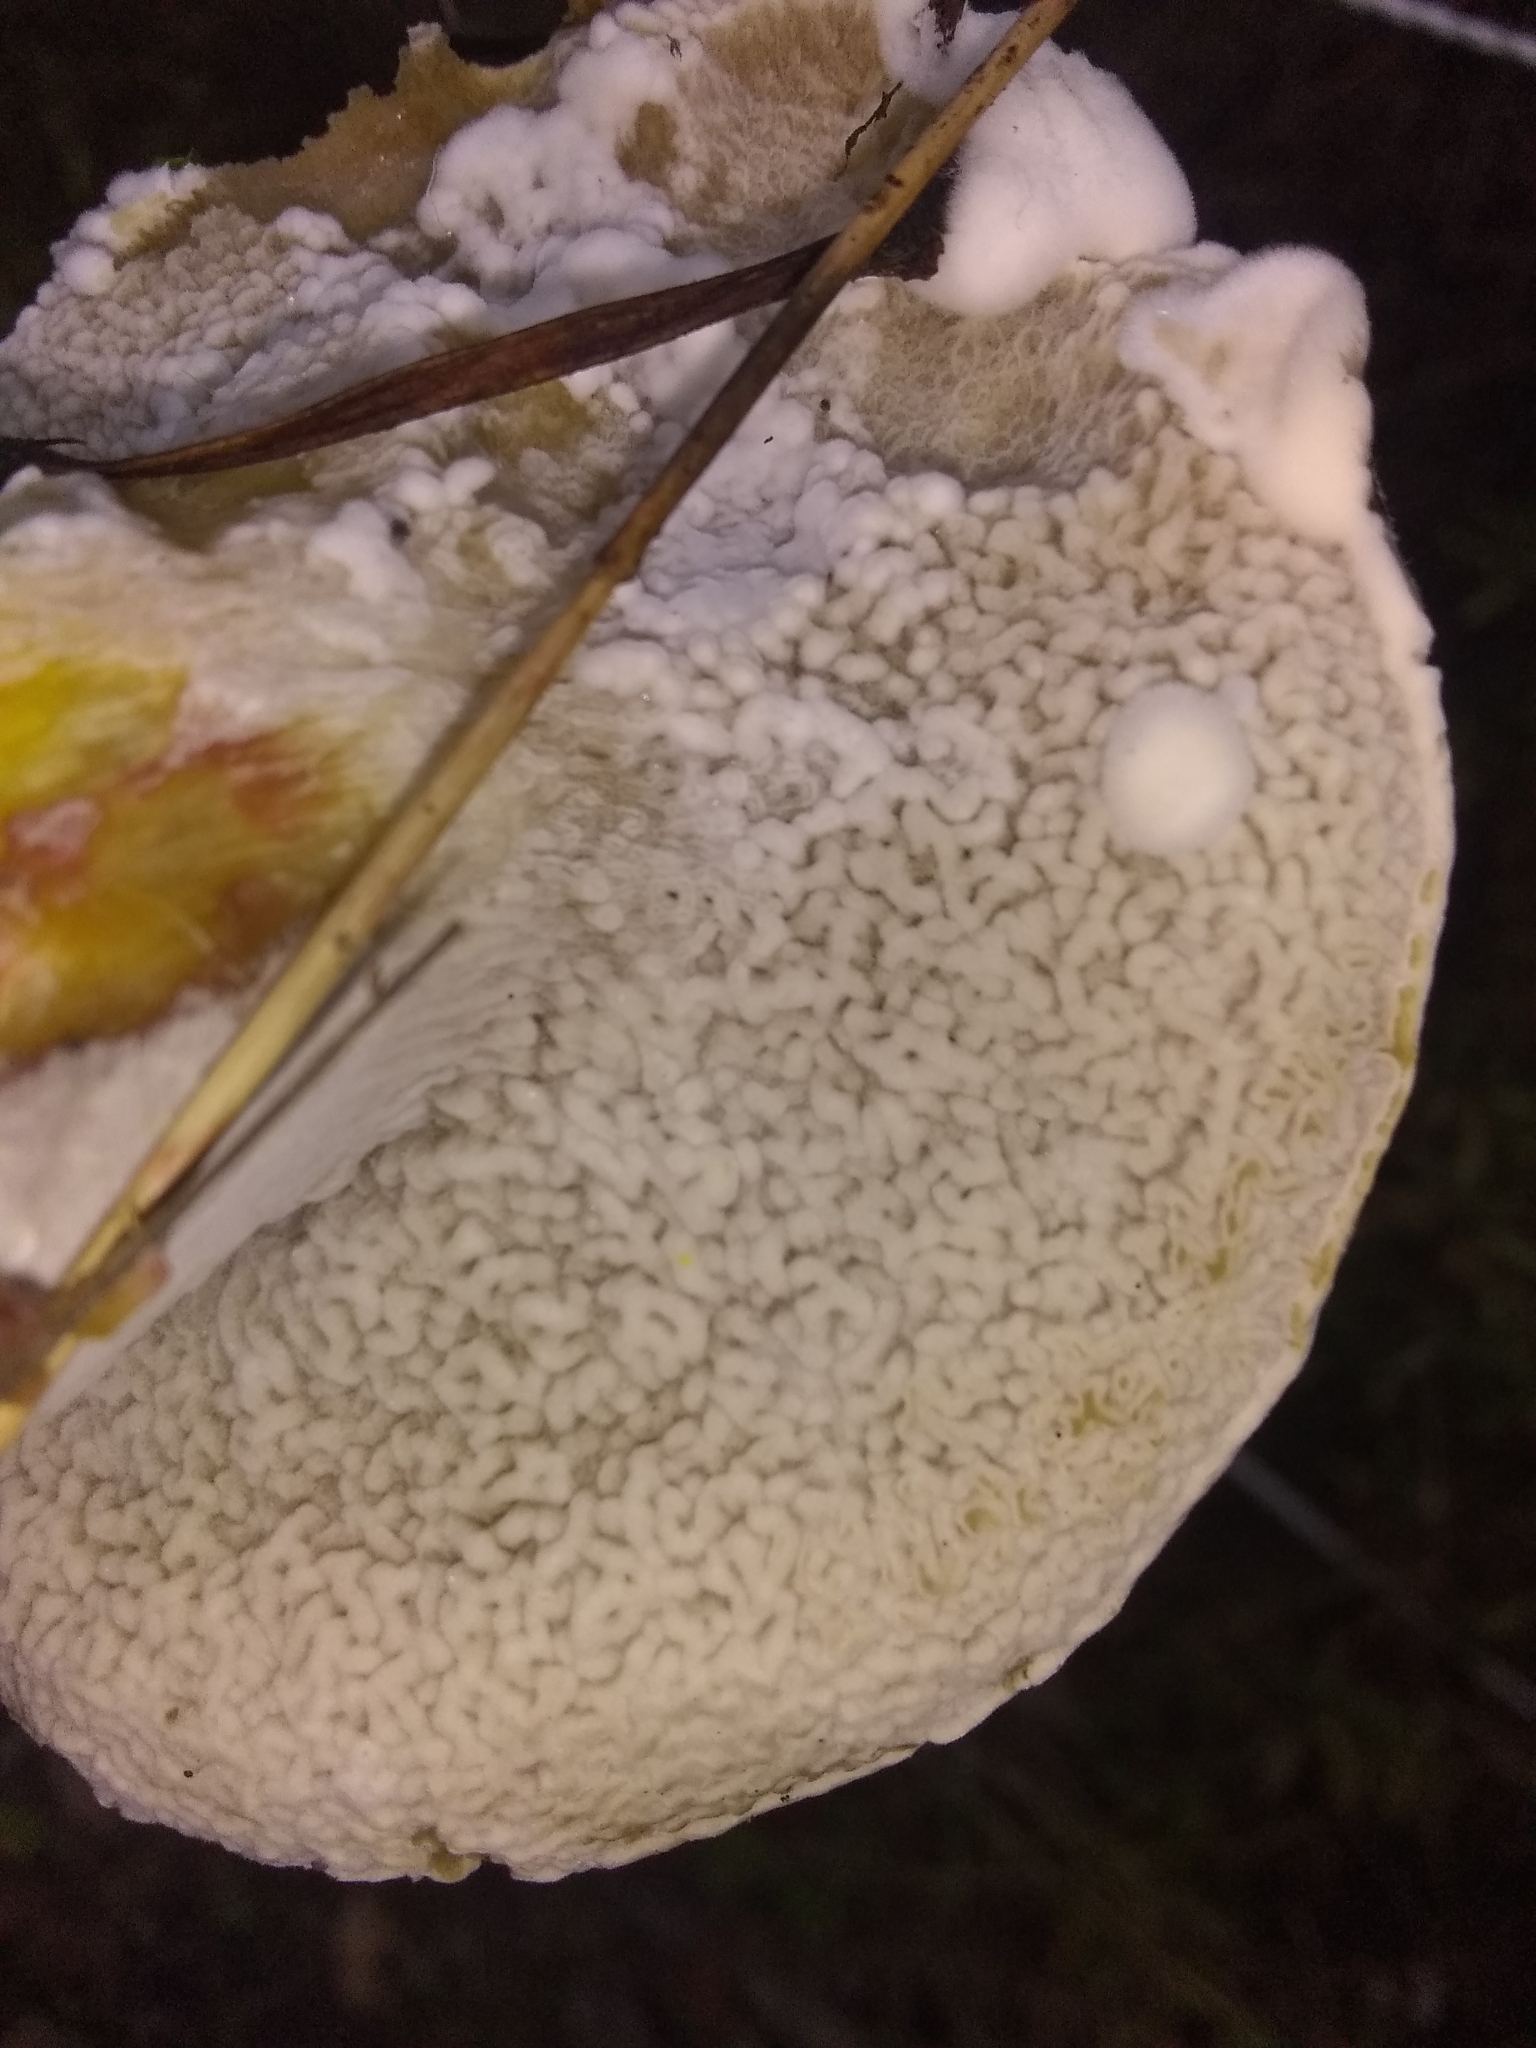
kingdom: Fungi
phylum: Ascomycota
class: Sordariomycetes
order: Hypocreales
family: Hypocreaceae
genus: Hypomyces
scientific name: Hypomyces microspermus
